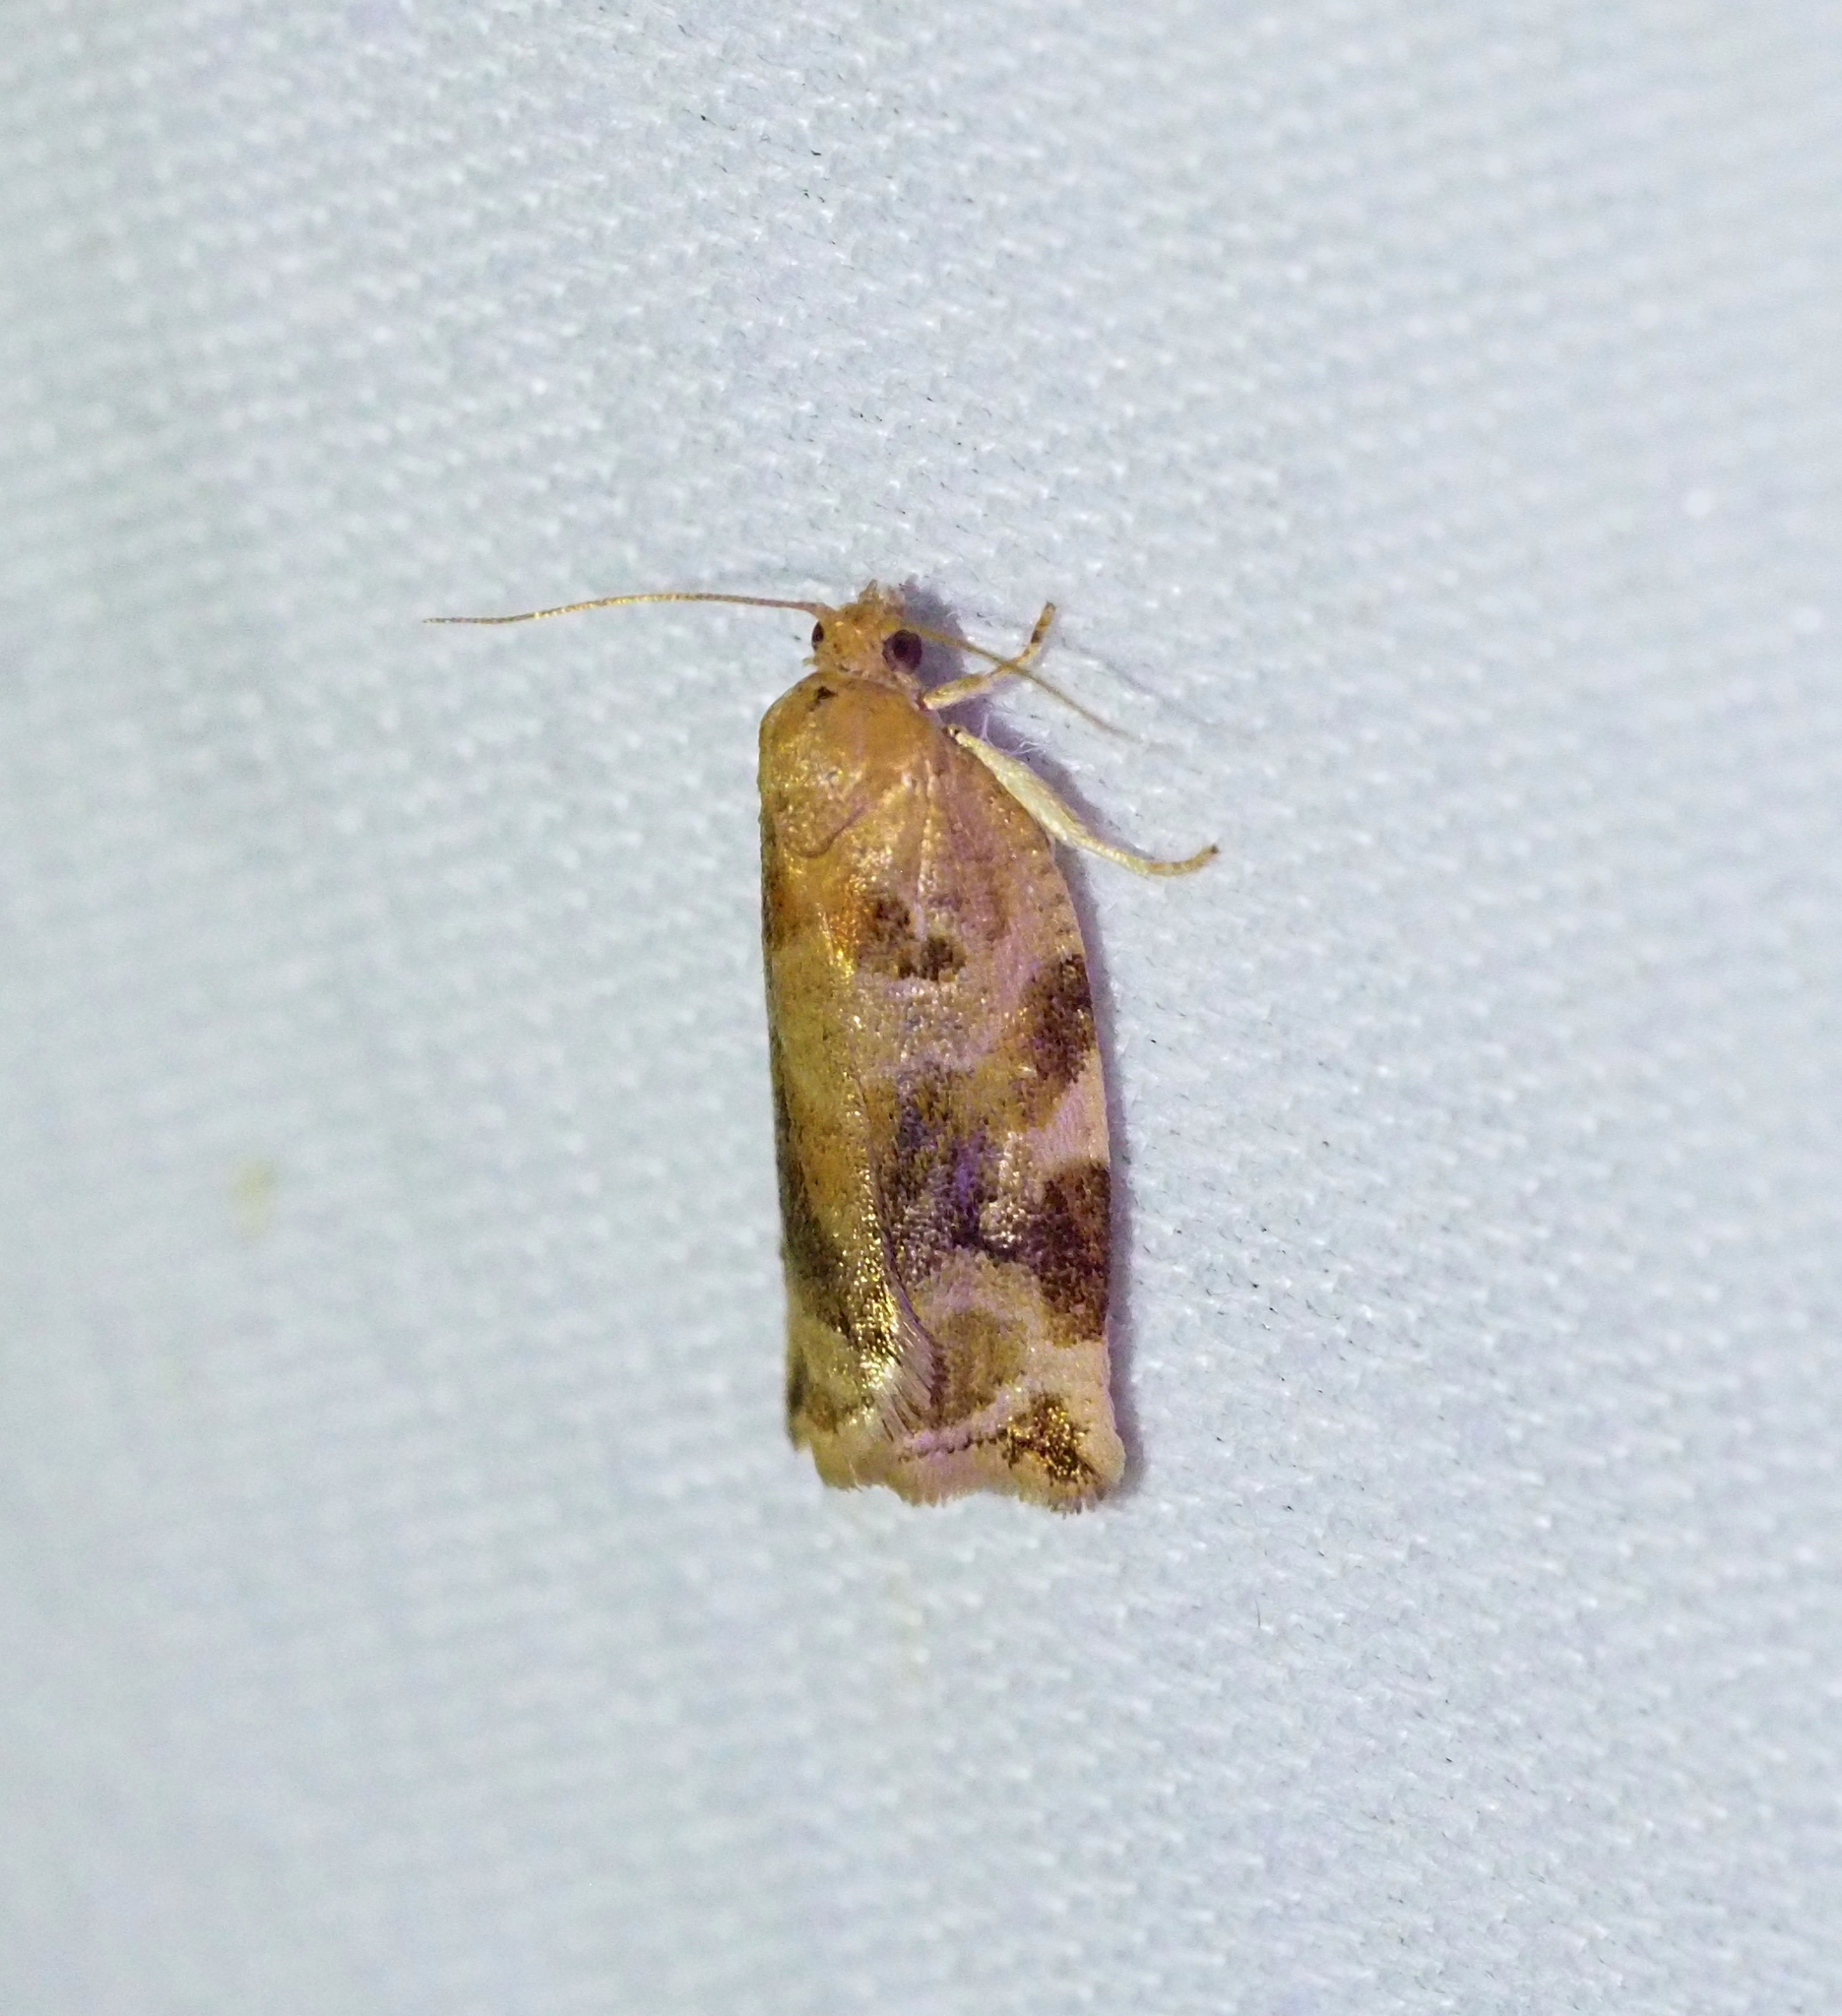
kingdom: Animalia
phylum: Arthropoda
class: Insecta
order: Lepidoptera
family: Tortricidae
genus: Archips
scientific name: Archips xylosteana
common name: Variegated golden tortrix
